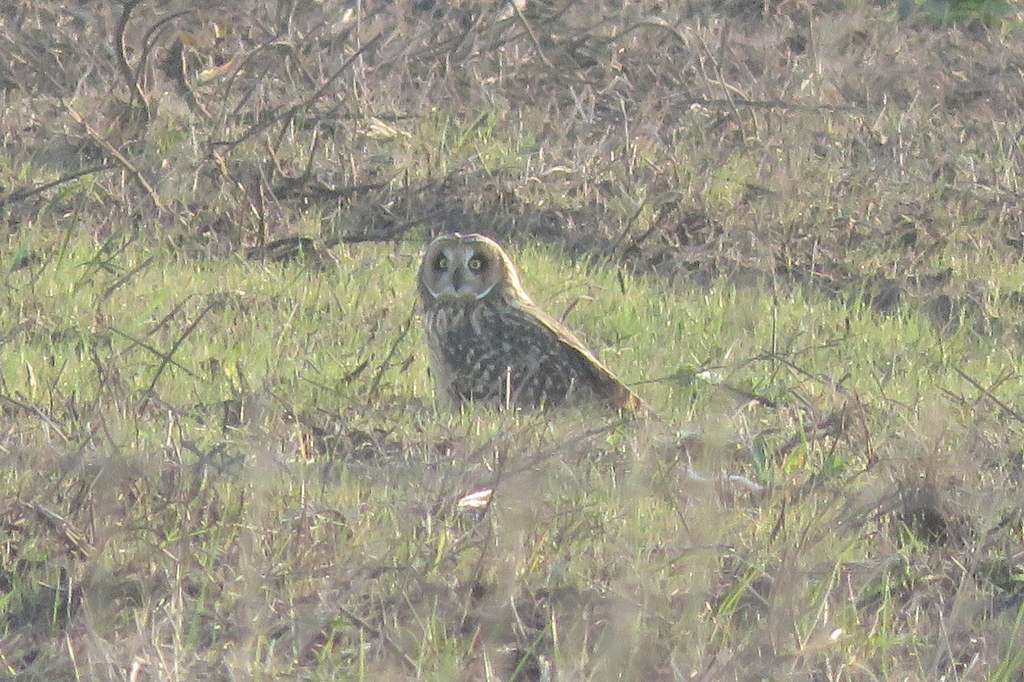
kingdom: Animalia
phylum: Chordata
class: Aves
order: Strigiformes
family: Strigidae
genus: Asio
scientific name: Asio flammeus
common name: Short-eared owl
